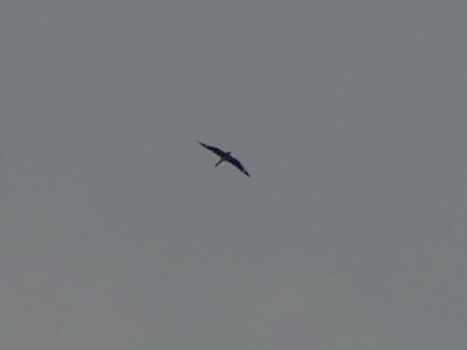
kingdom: Animalia
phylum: Chordata
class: Aves
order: Caprimulgiformes
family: Caprimulgidae
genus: Chordeiles
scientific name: Chordeiles minor
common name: Common nighthawk
